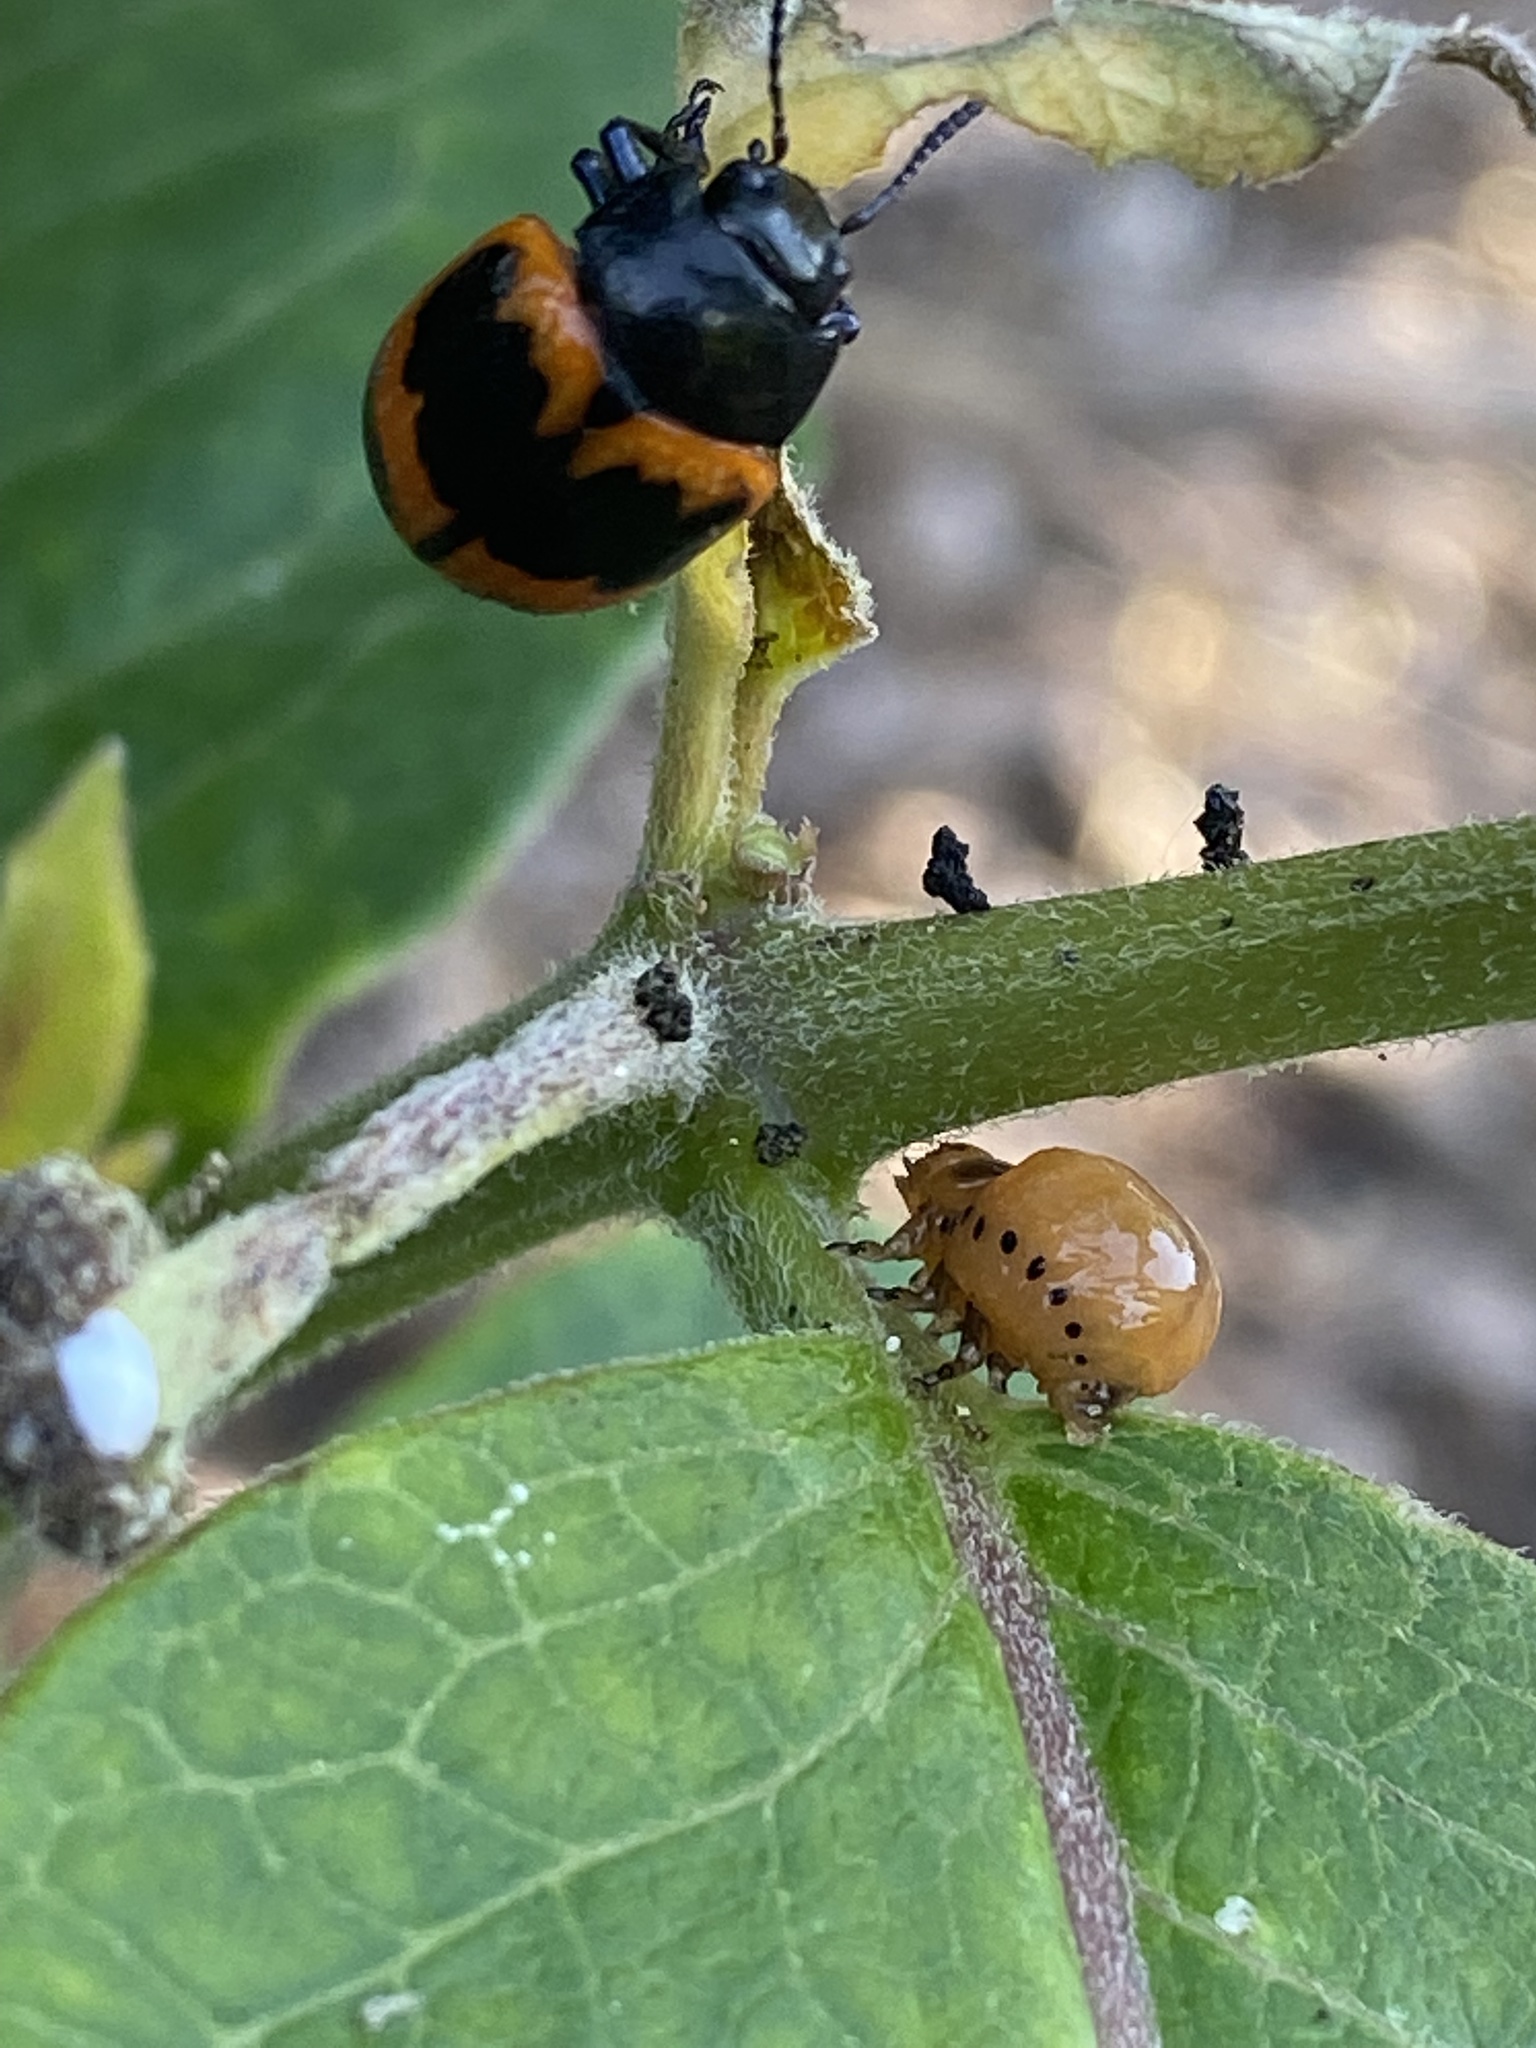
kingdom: Animalia
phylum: Arthropoda
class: Insecta
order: Coleoptera
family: Chrysomelidae
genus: Labidomera
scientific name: Labidomera clivicollis
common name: Swamp milkweed leaf beetle
